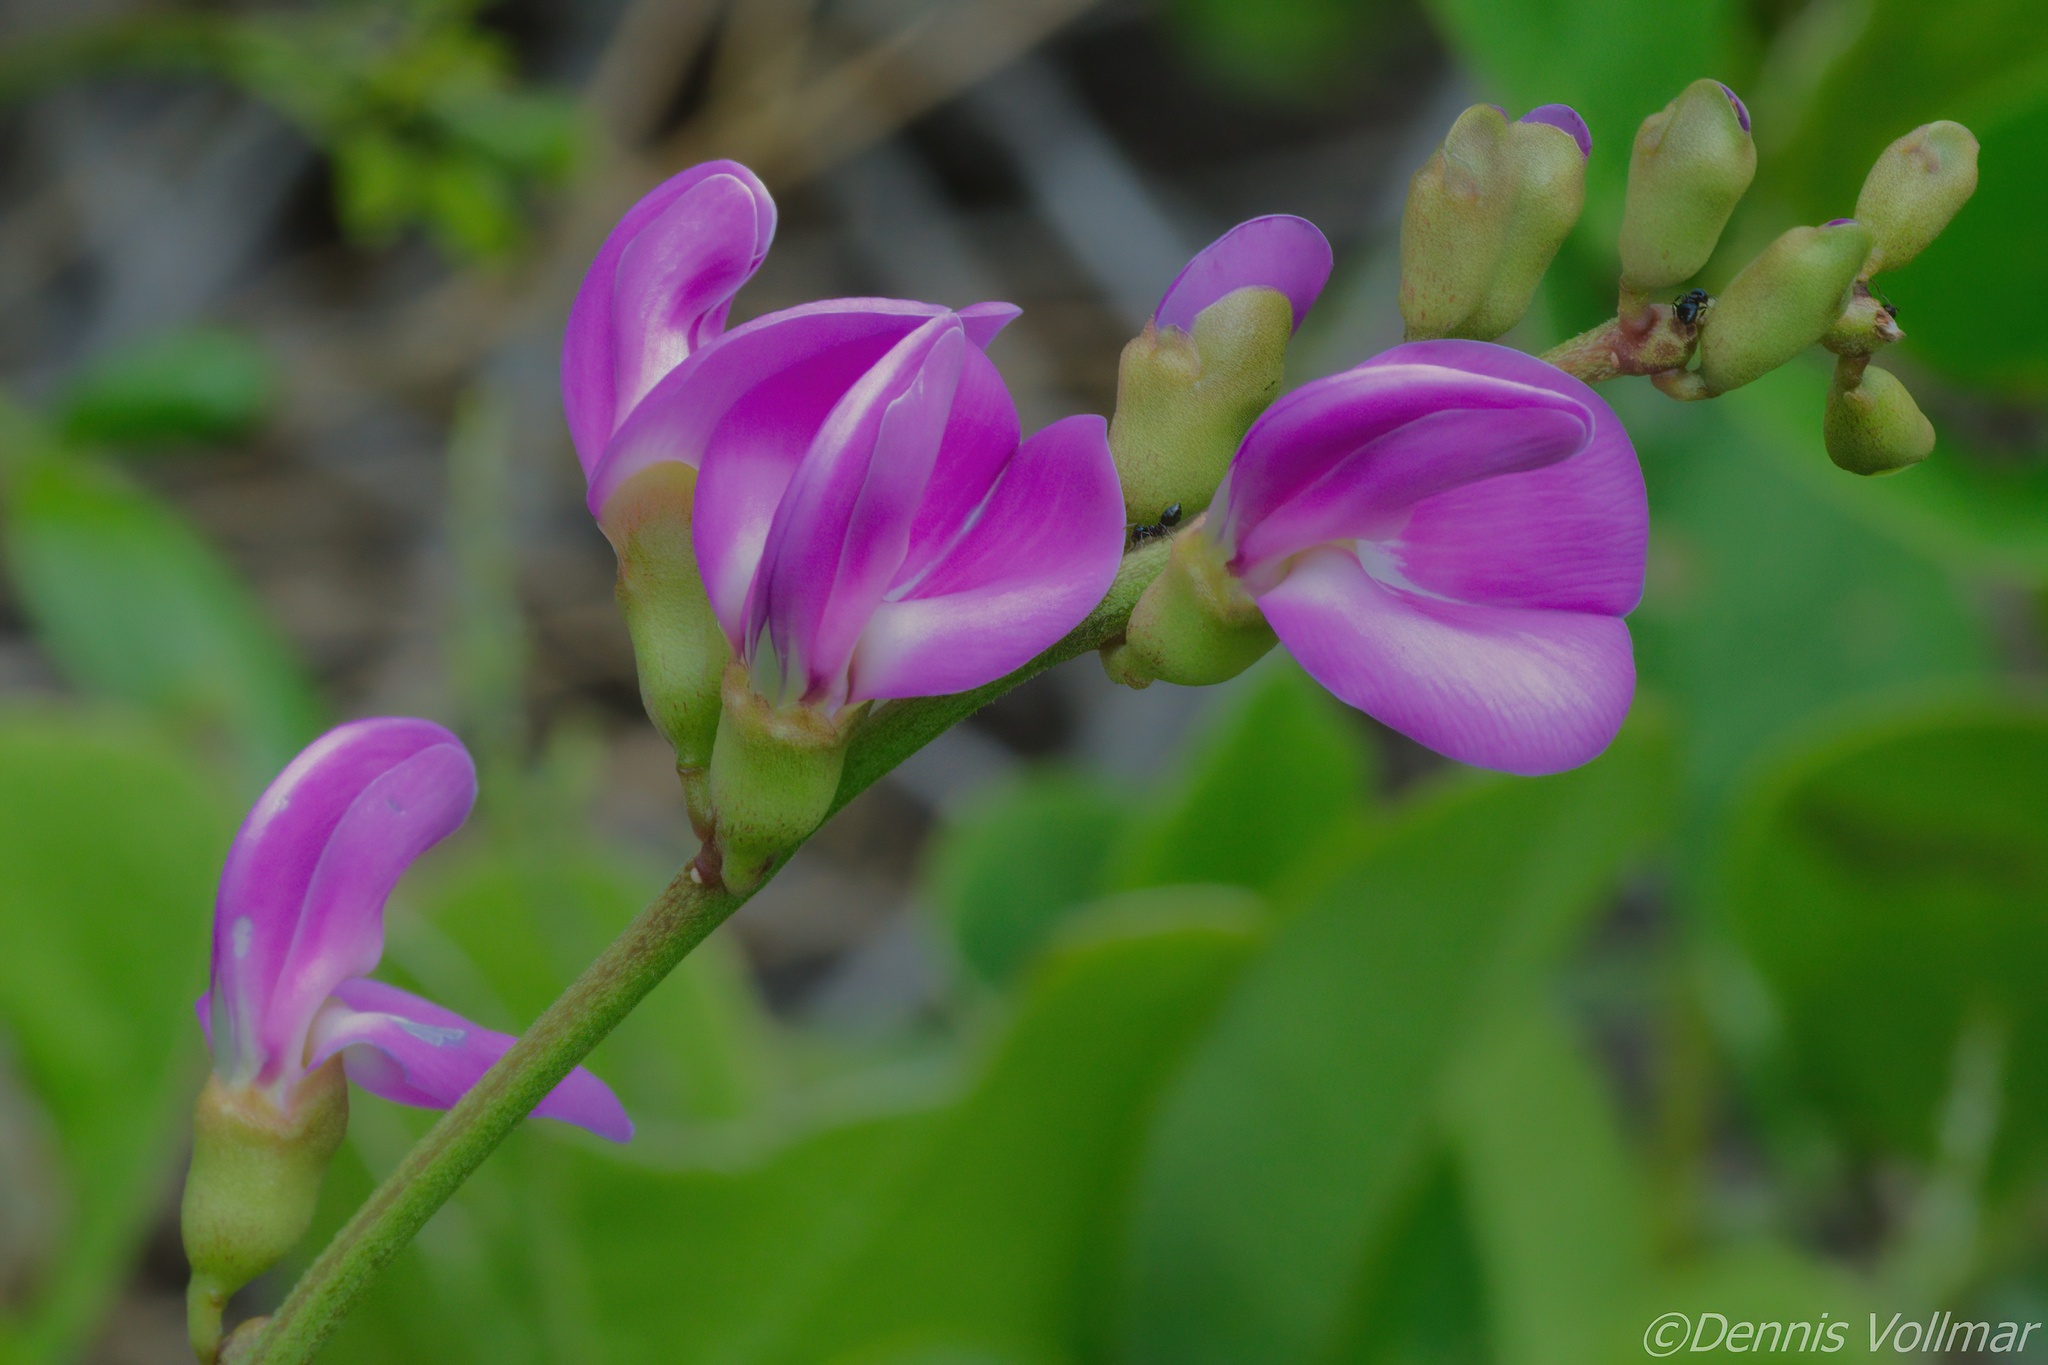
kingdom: Plantae
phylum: Tracheophyta
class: Magnoliopsida
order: Fabales
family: Fabaceae
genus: Canavalia
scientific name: Canavalia rosea
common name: Beach-bean
